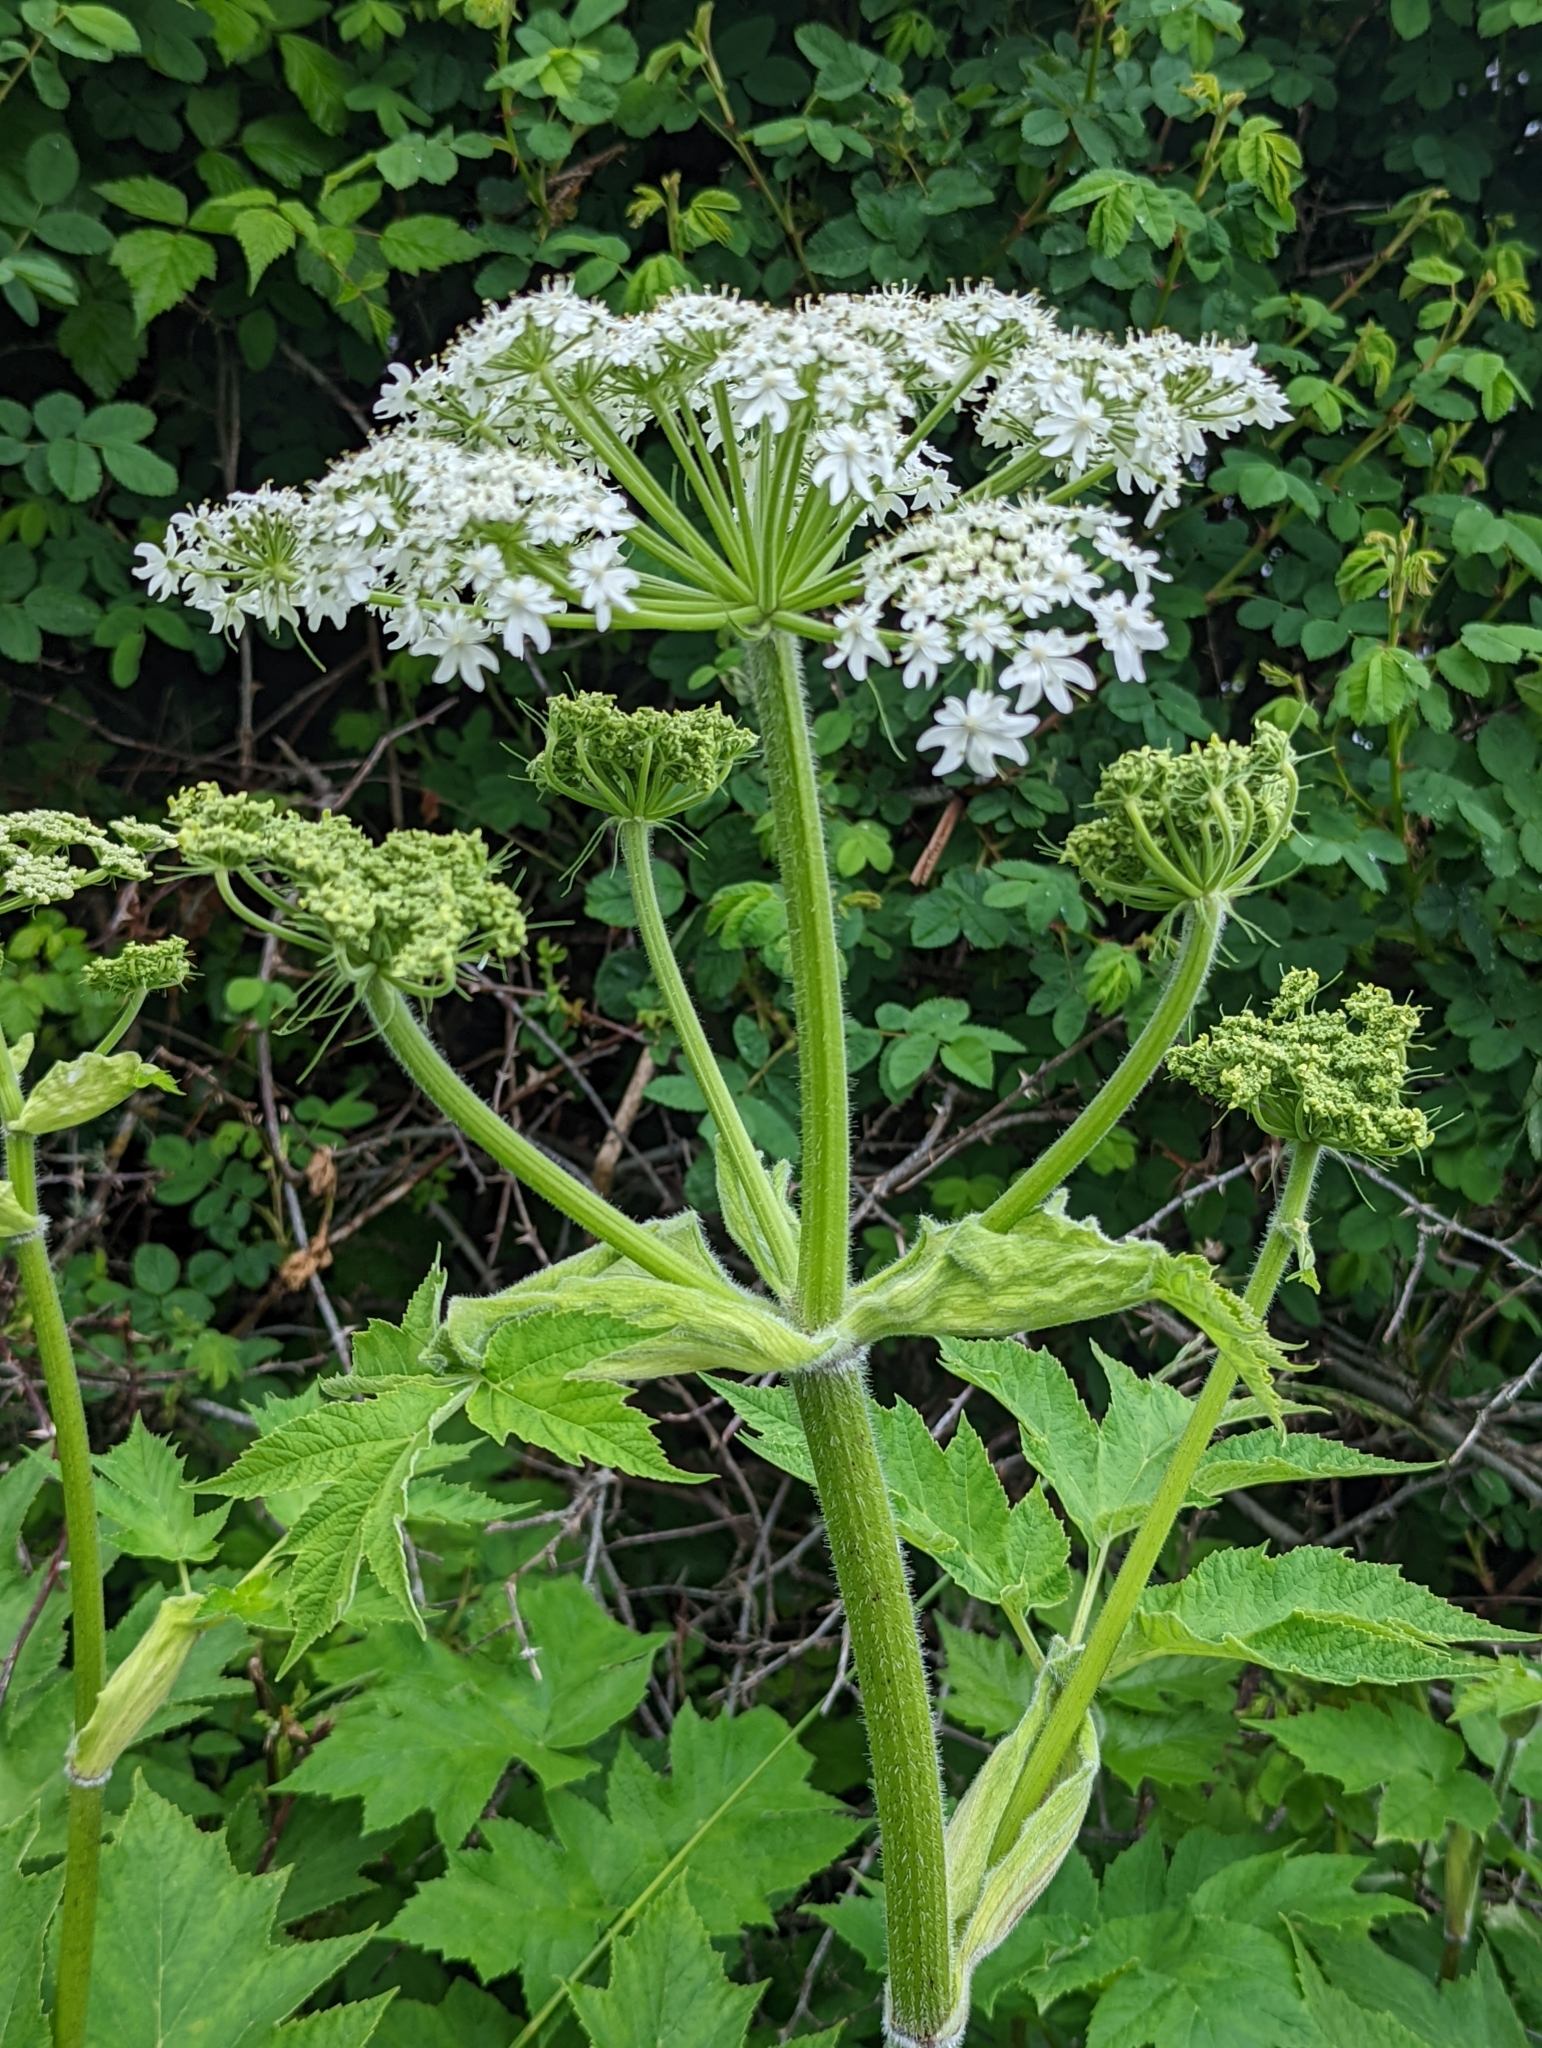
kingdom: Plantae
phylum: Tracheophyta
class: Magnoliopsida
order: Apiales
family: Apiaceae
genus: Heracleum
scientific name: Heracleum maximum
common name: American cow parsnip
